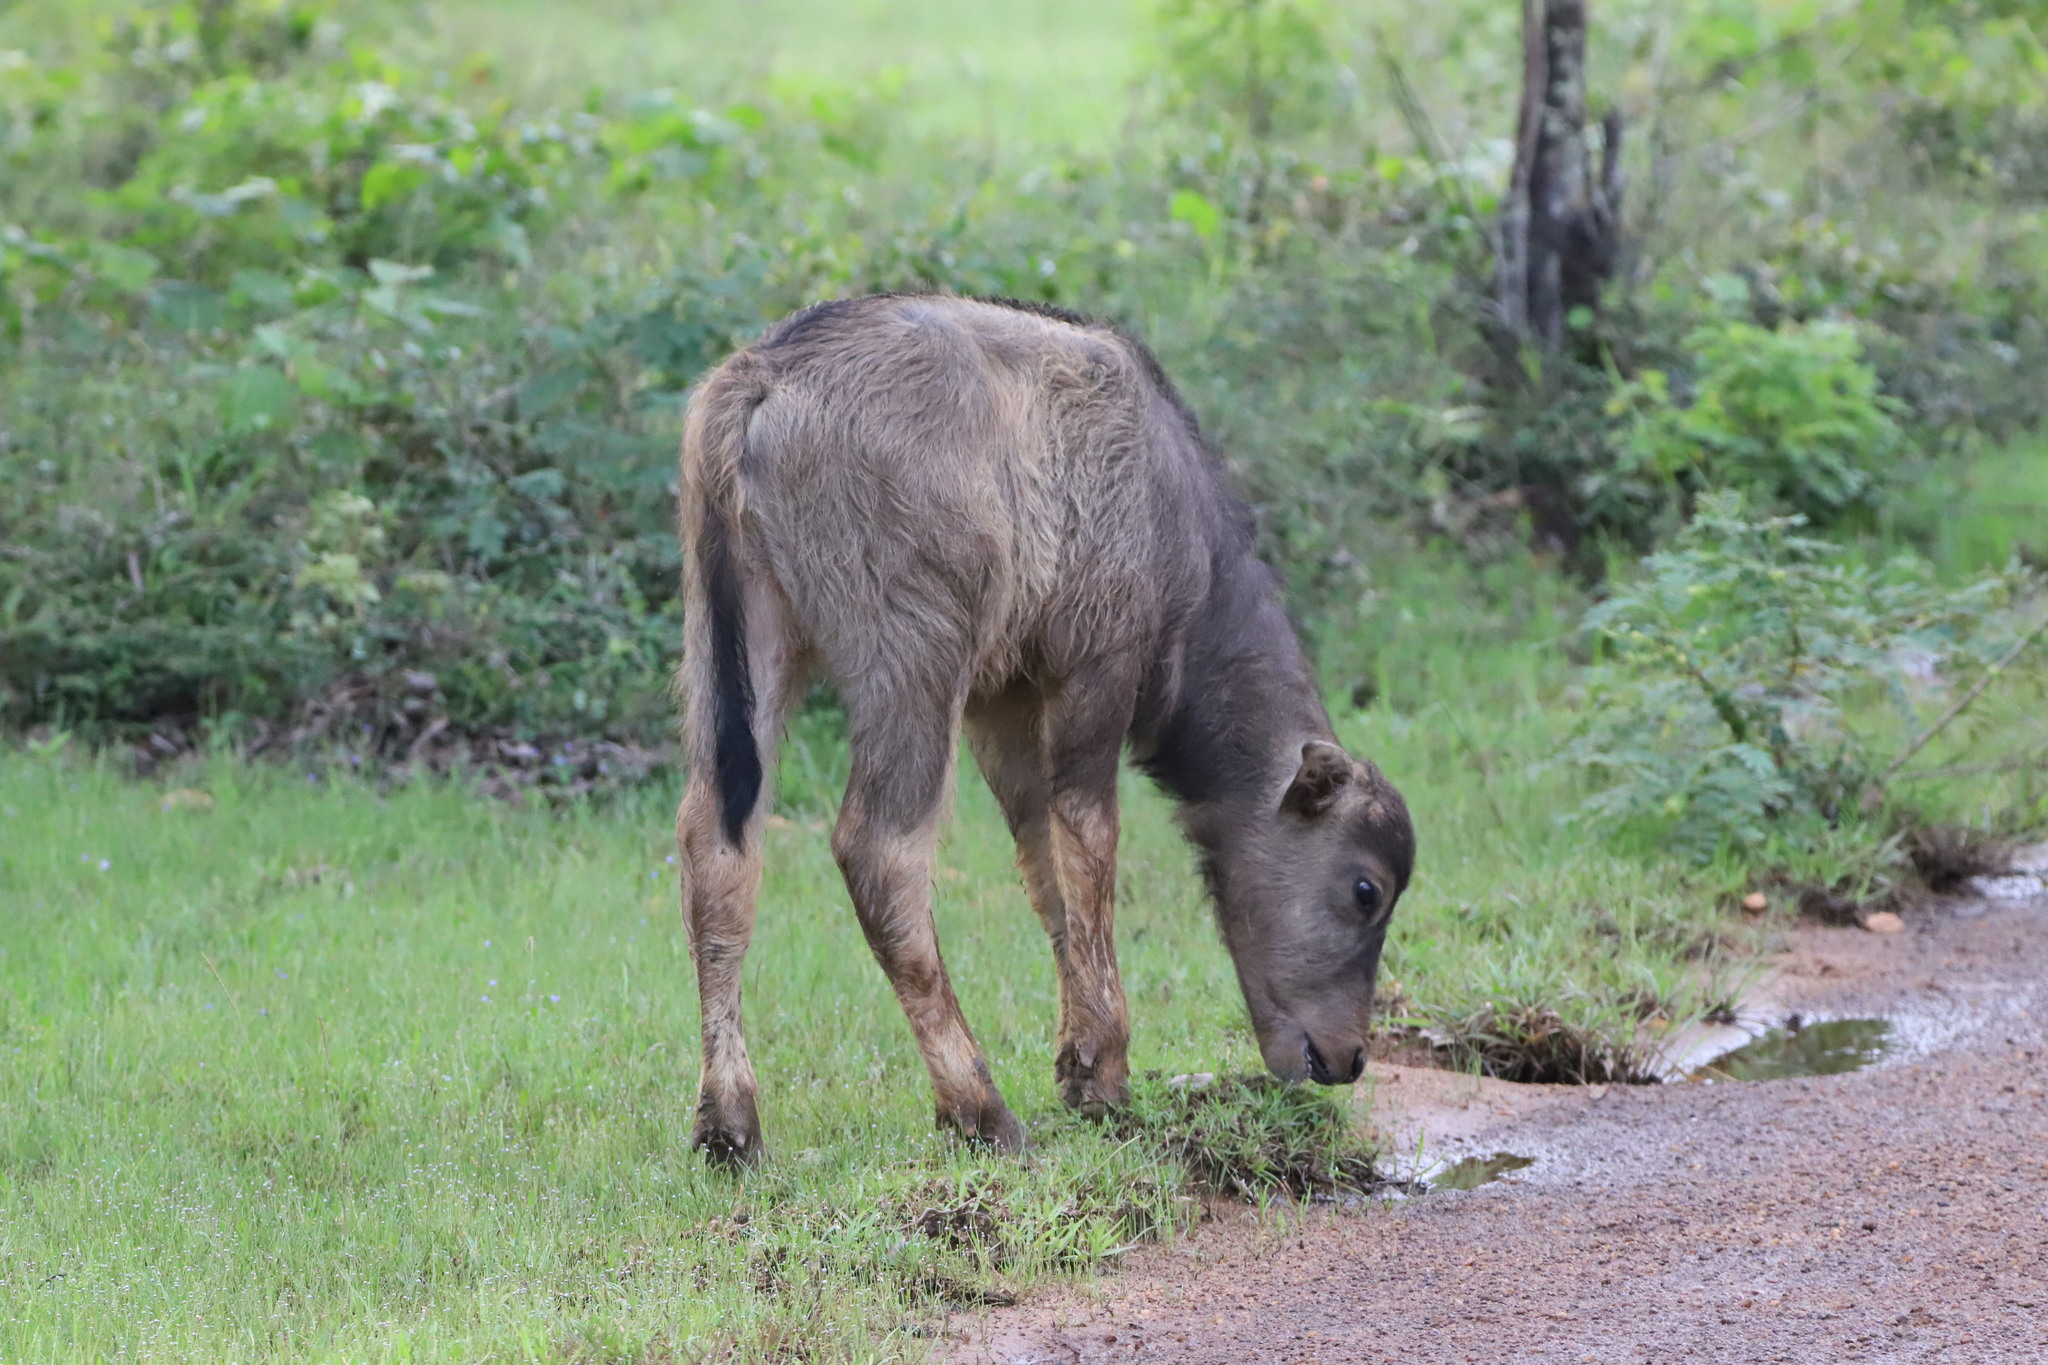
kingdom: Animalia
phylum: Chordata
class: Mammalia
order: Artiodactyla
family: Bovidae
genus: Bubalus
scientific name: Bubalus bubalis
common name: Water buffalo
